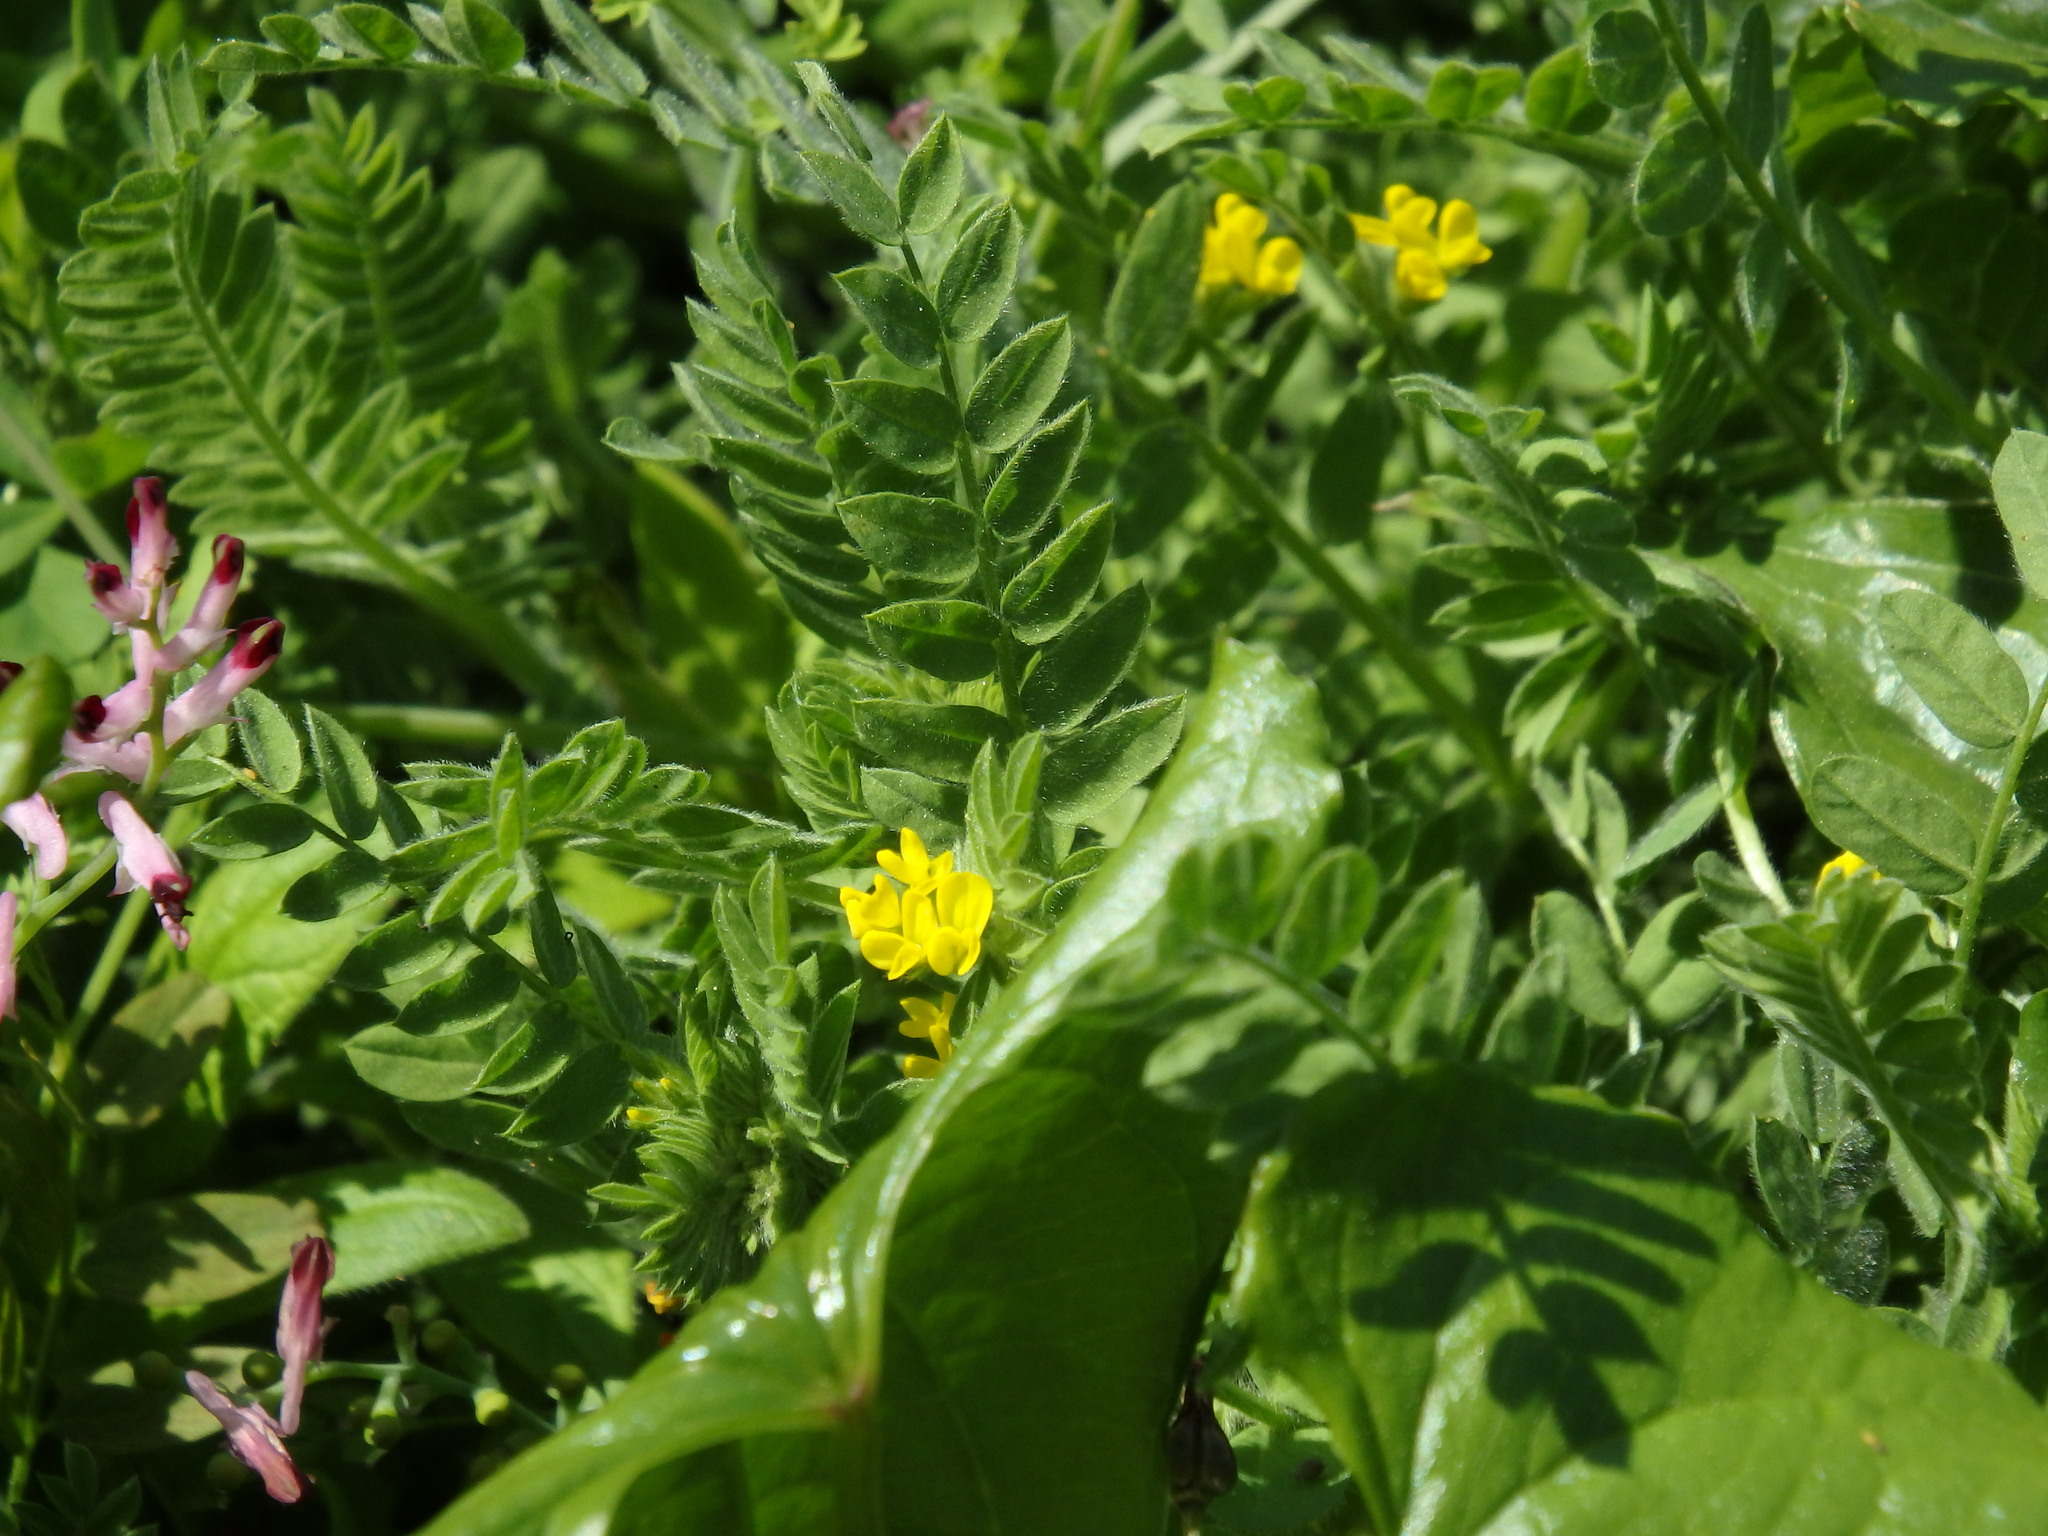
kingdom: Plantae
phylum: Tracheophyta
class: Magnoliopsida
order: Fabales
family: Fabaceae
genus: Ornithopus
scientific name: Ornithopus compressus
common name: Yellow serradella
